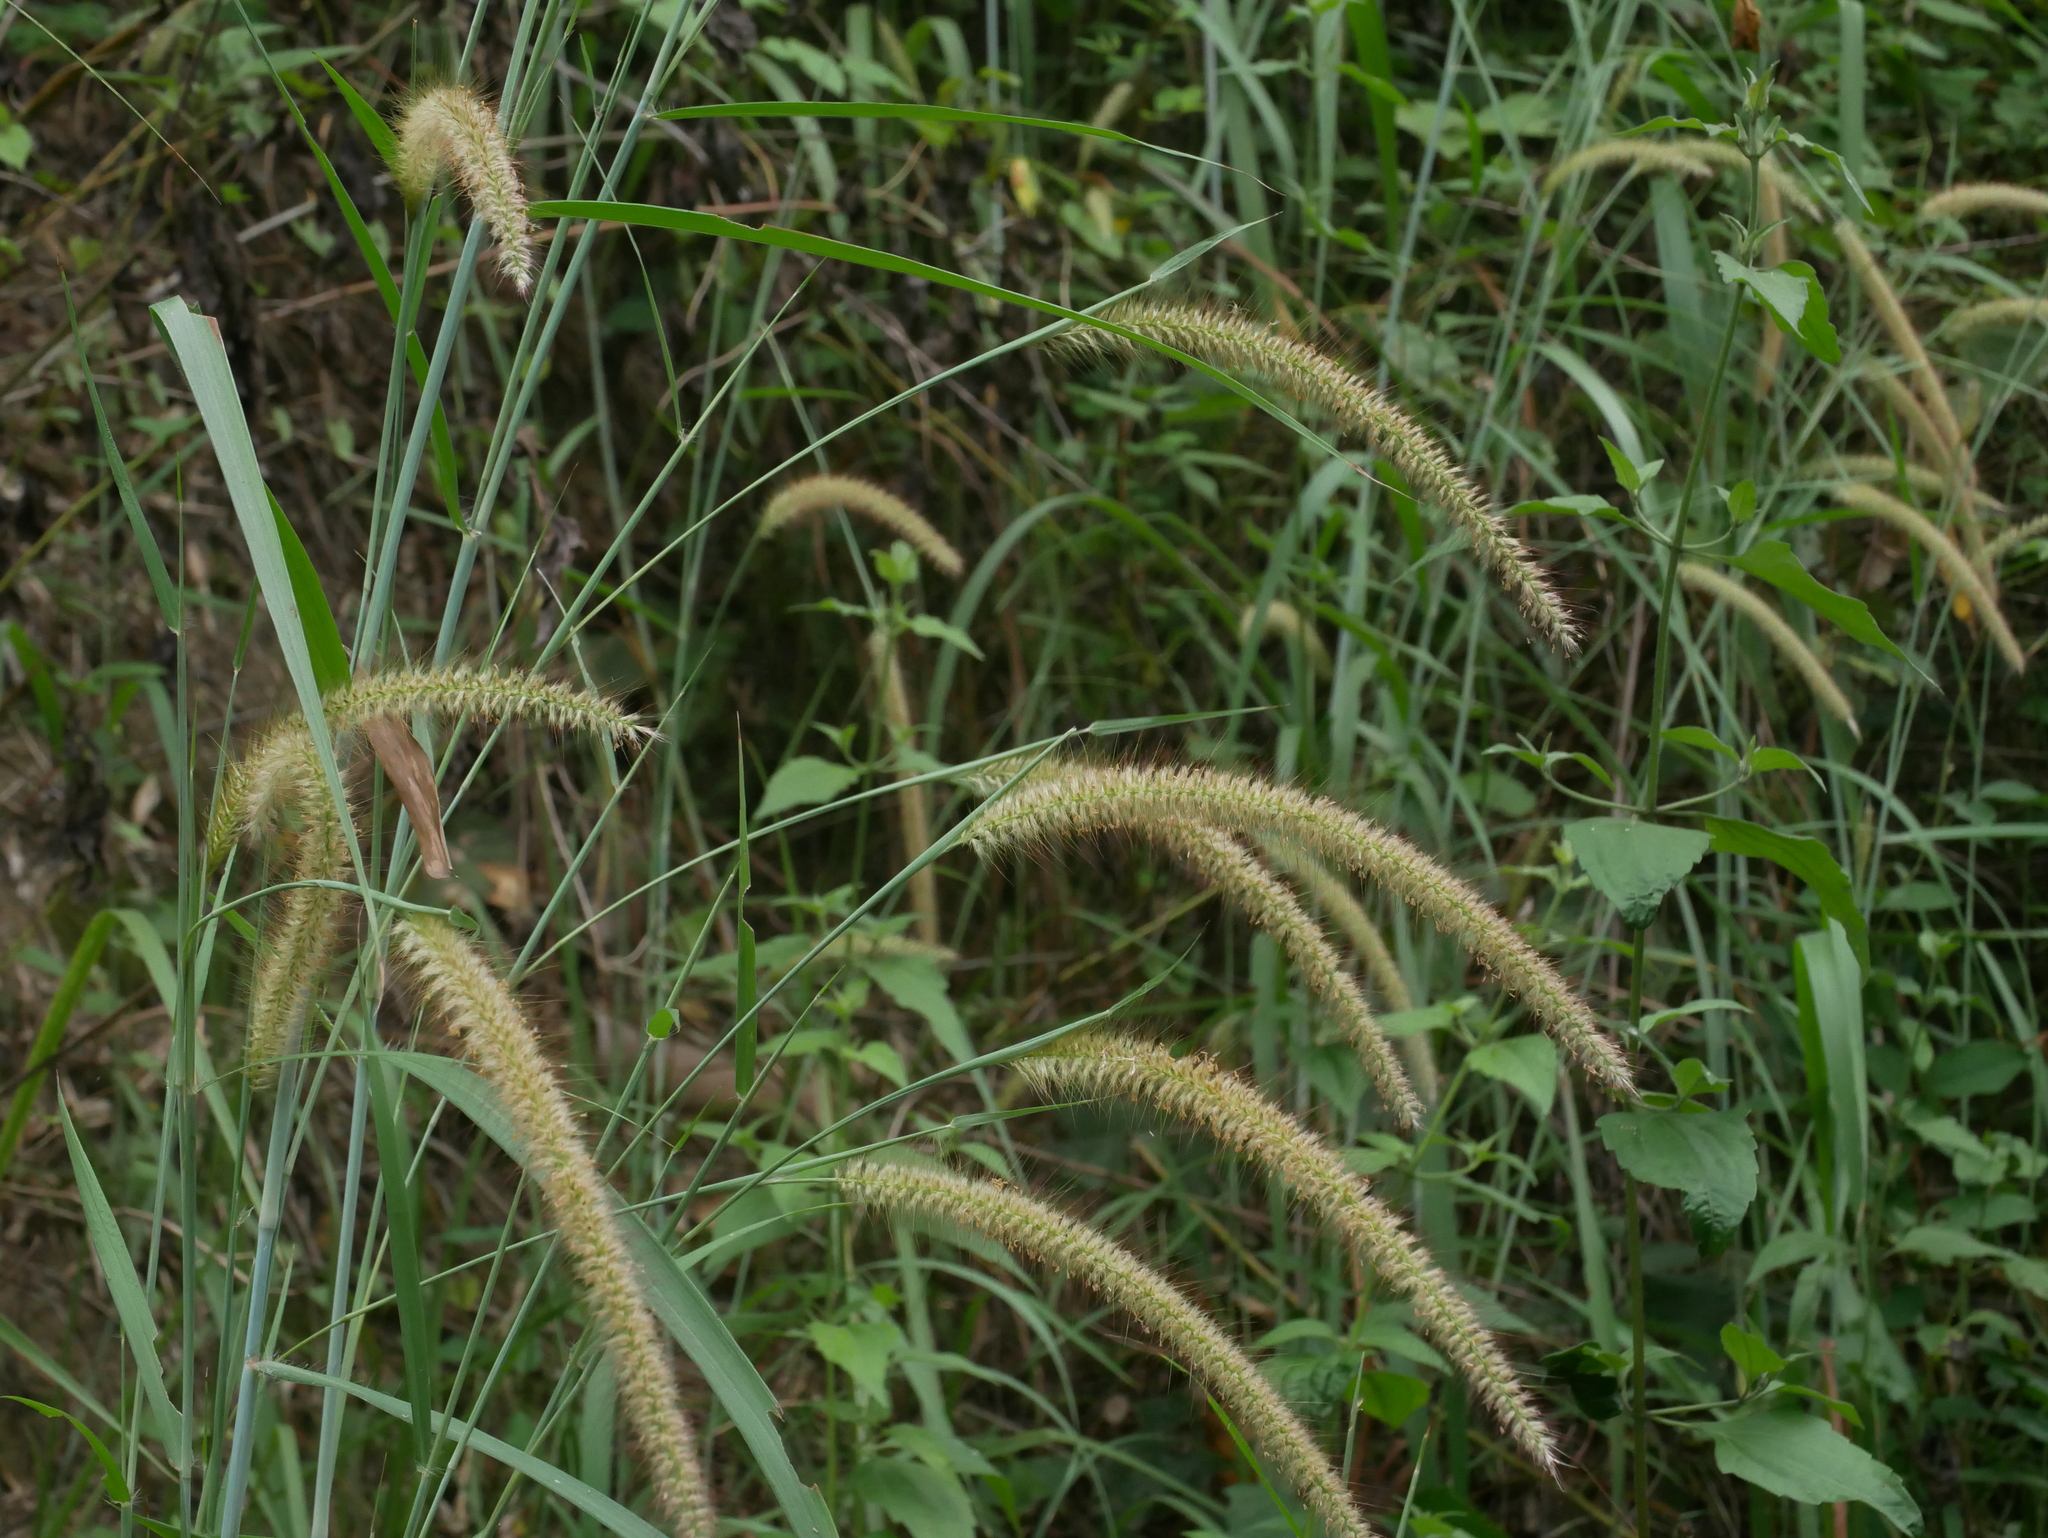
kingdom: Plantae
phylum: Tracheophyta
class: Liliopsida
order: Poales
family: Poaceae
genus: Cenchrus
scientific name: Cenchrus purpureus
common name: Elephant grass
